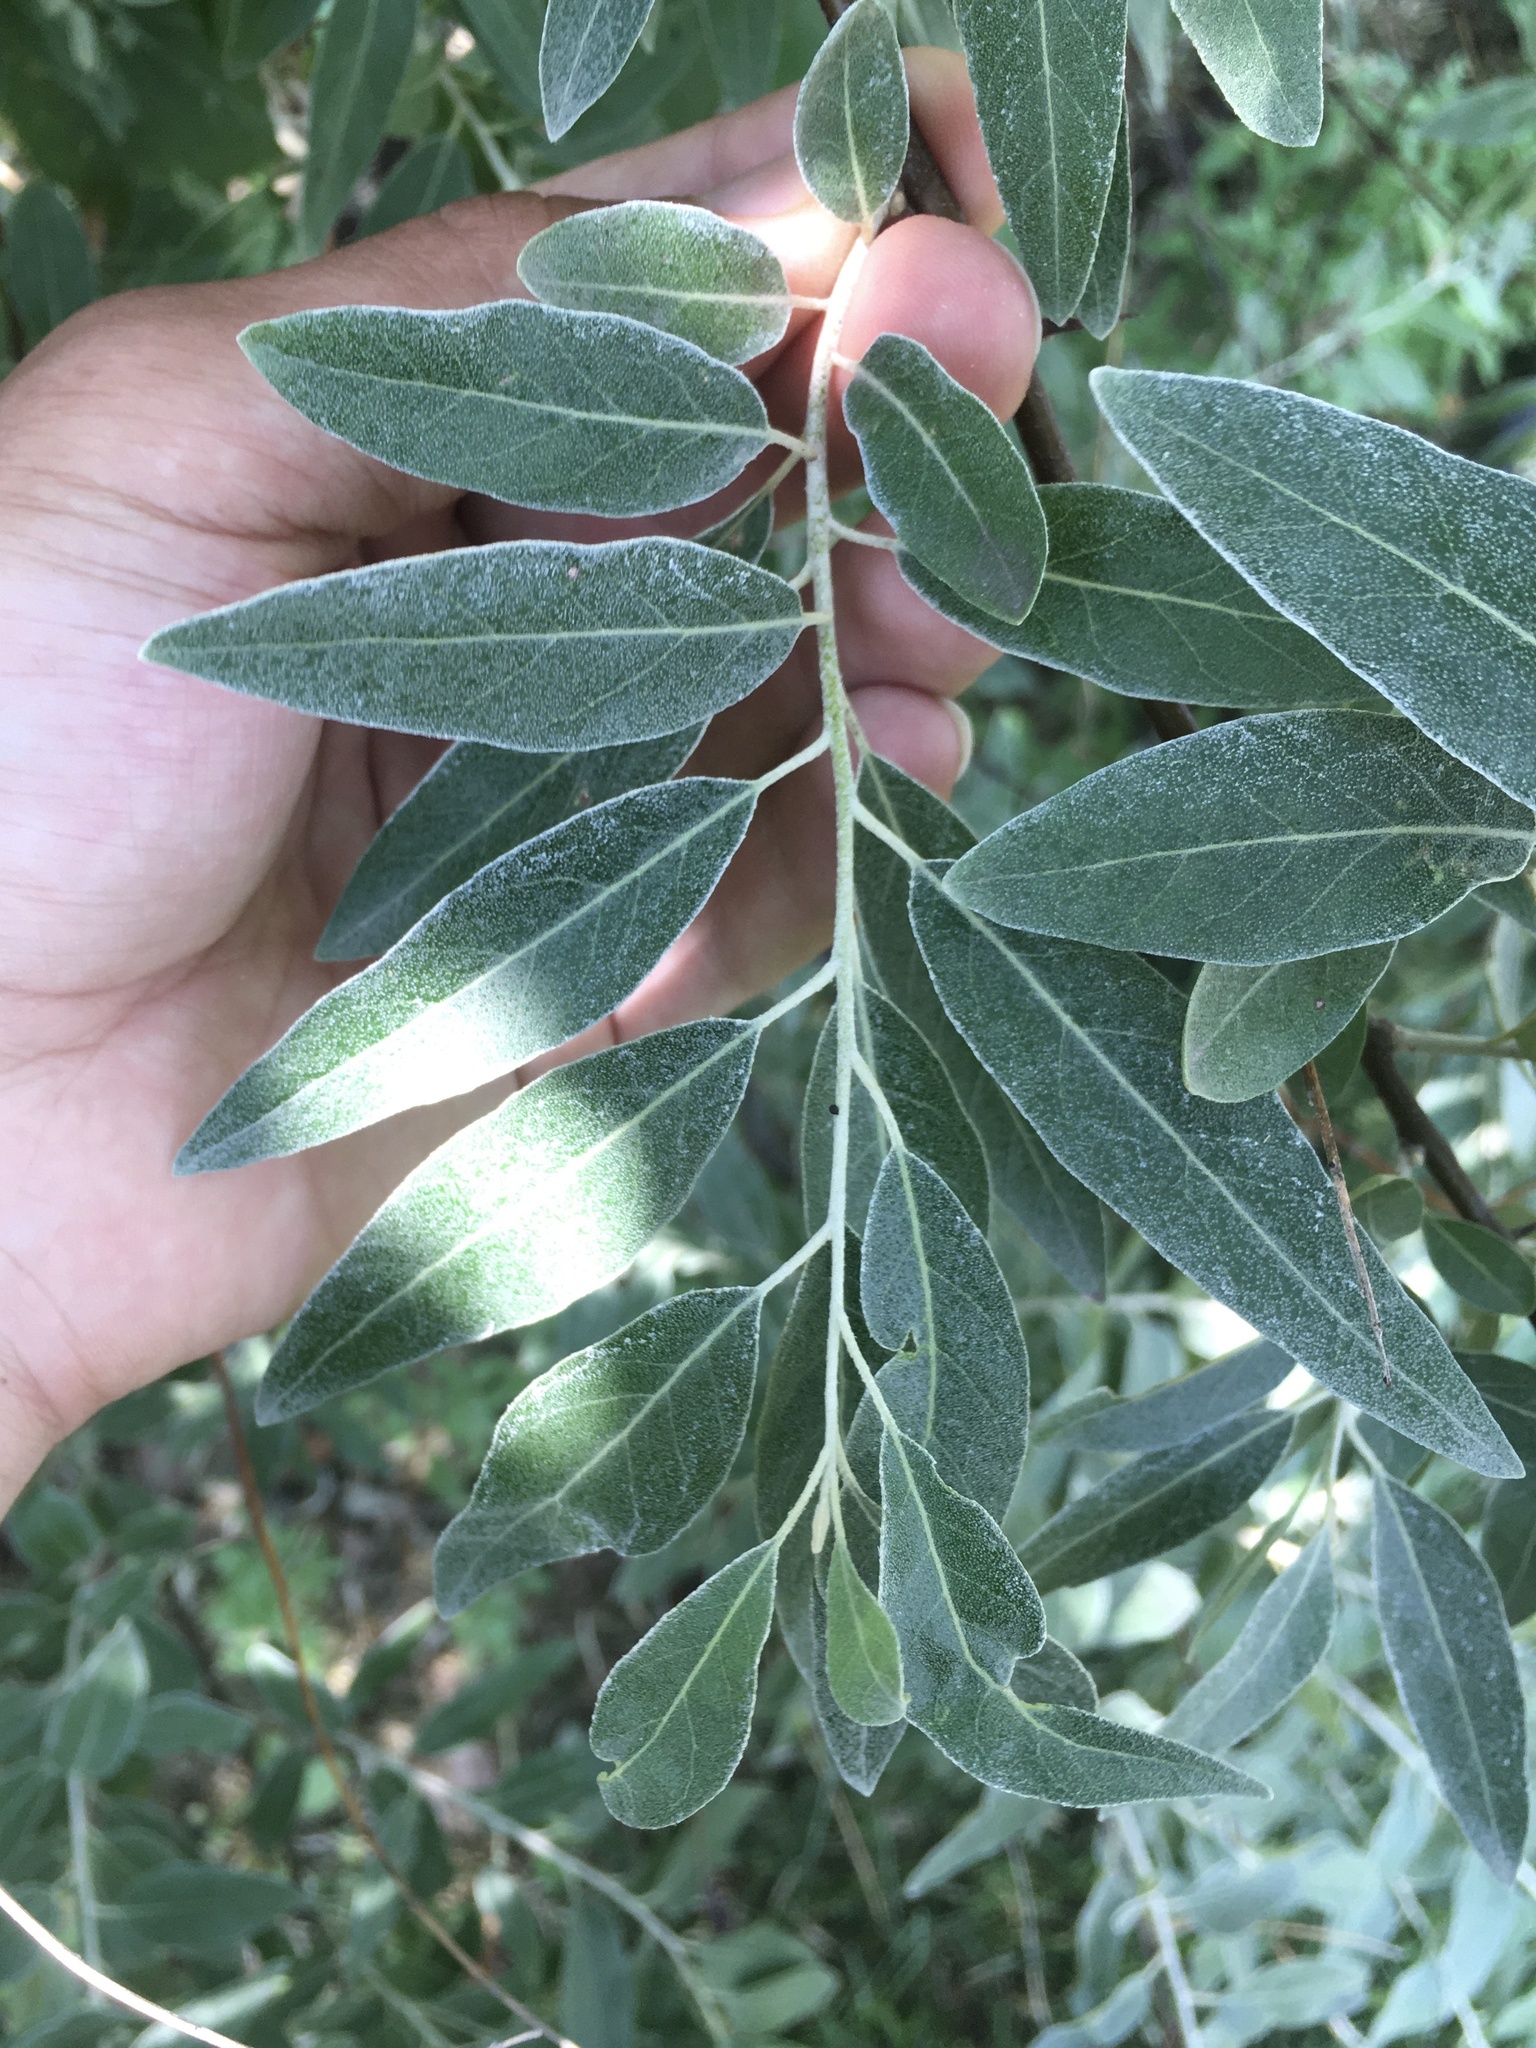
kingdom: Plantae
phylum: Tracheophyta
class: Magnoliopsida
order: Rosales
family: Elaeagnaceae
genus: Elaeagnus
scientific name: Elaeagnus angustifolia
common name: Russian olive
